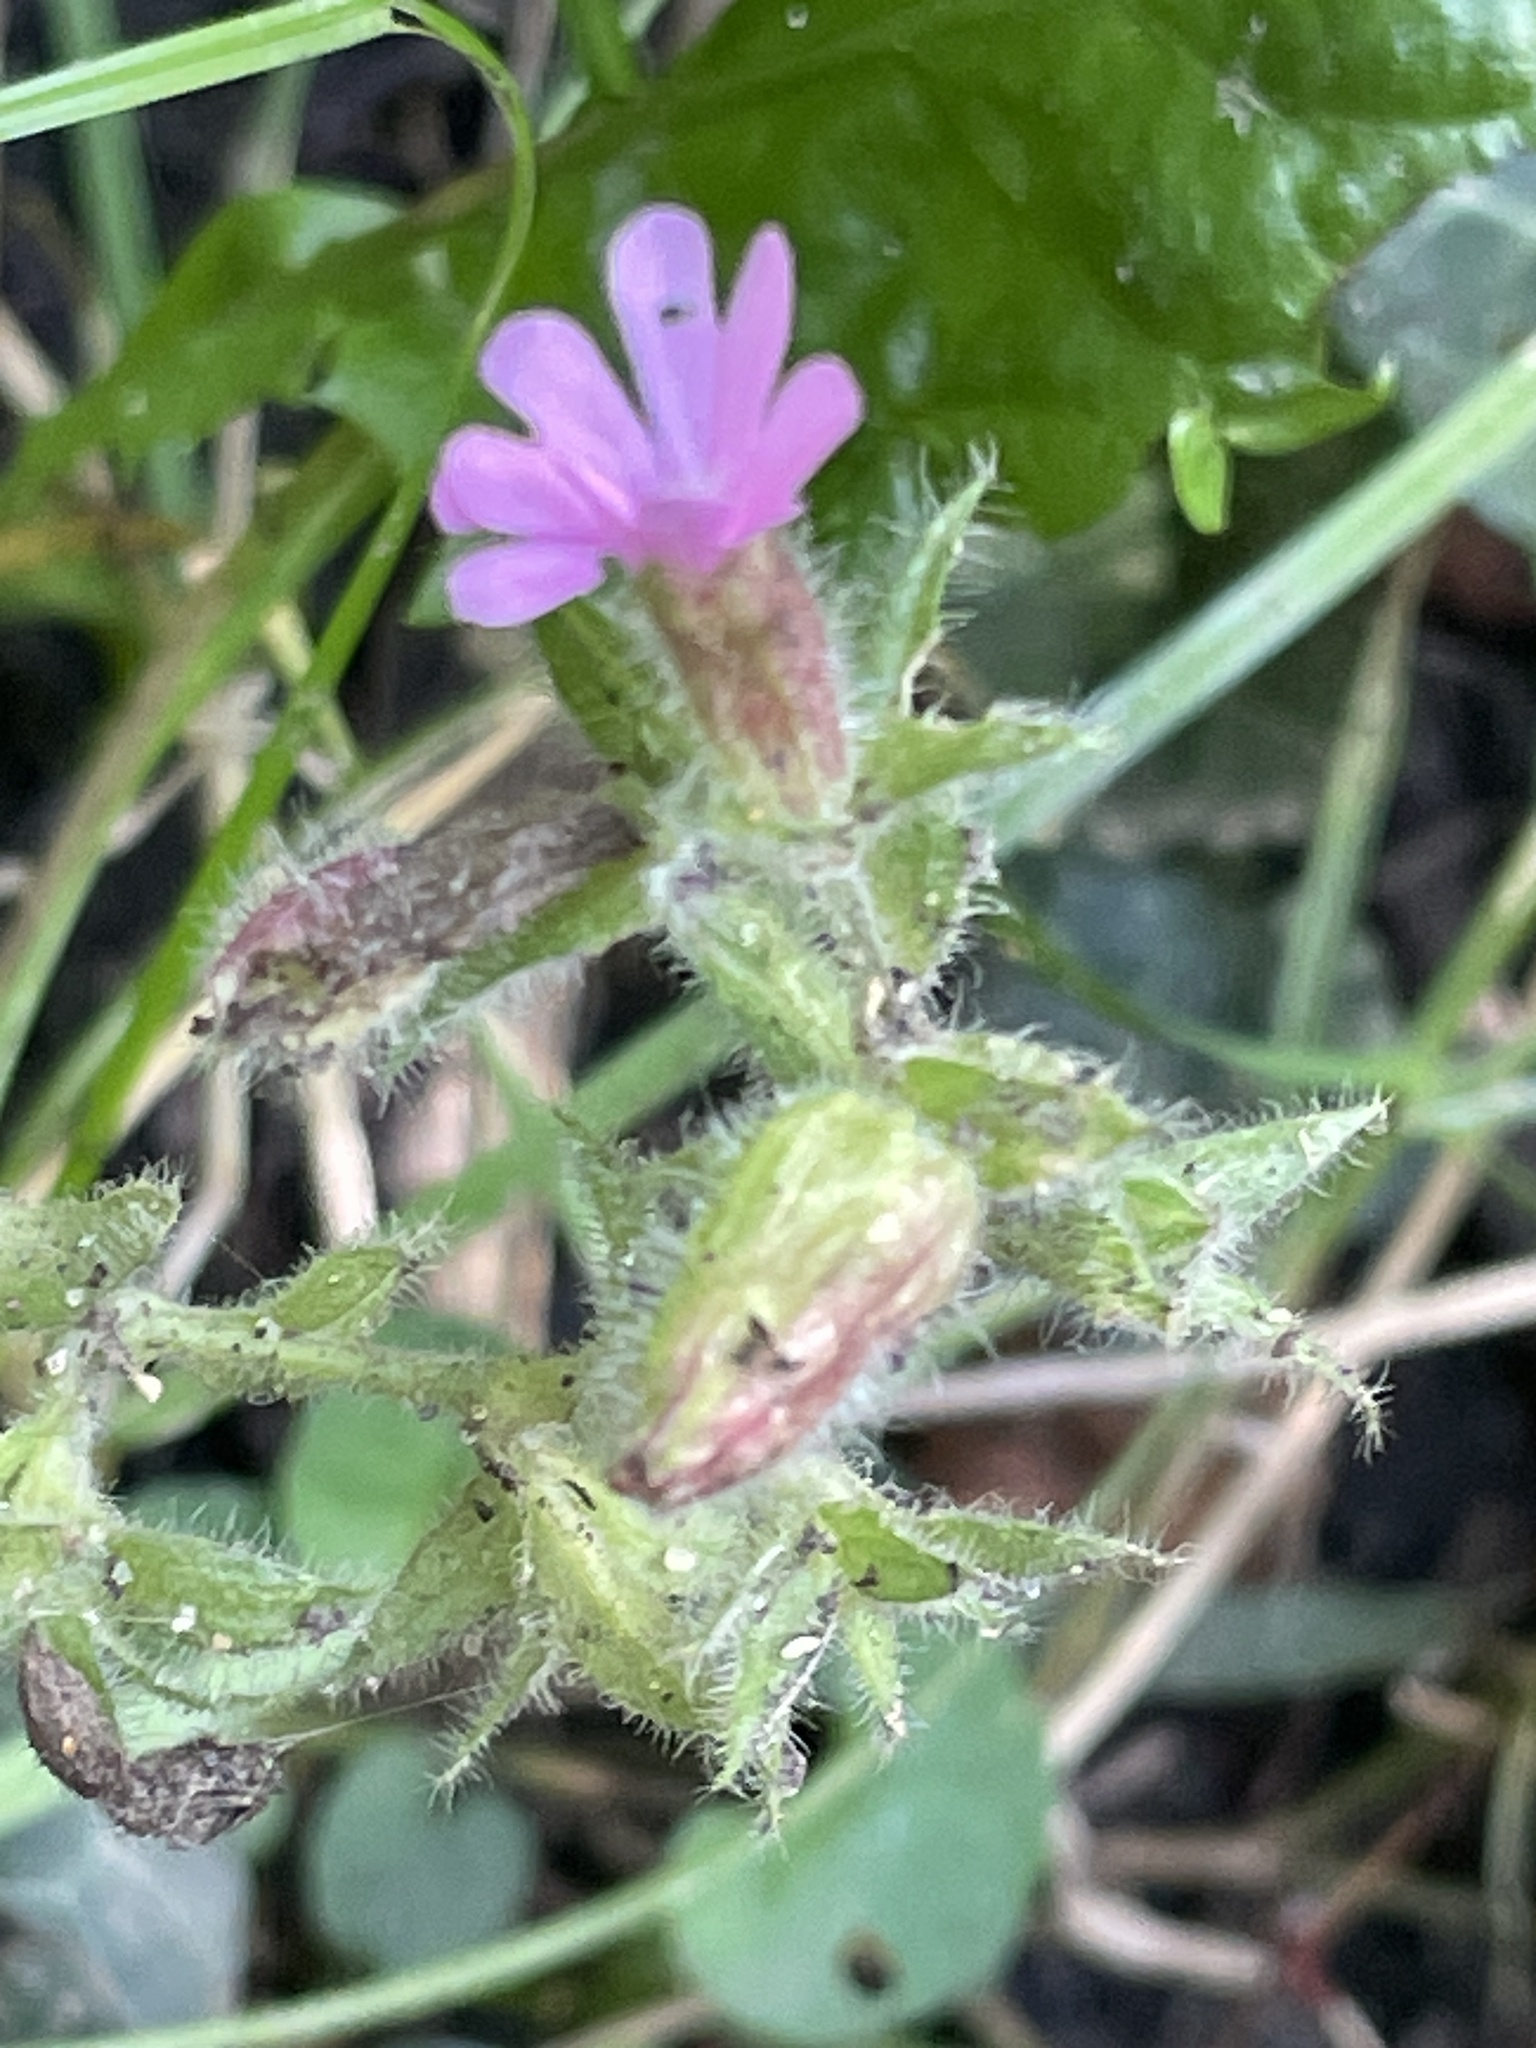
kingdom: Plantae
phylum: Tracheophyta
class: Magnoliopsida
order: Caryophyllales
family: Caryophyllaceae
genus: Silene
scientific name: Silene dioica
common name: Red campion
